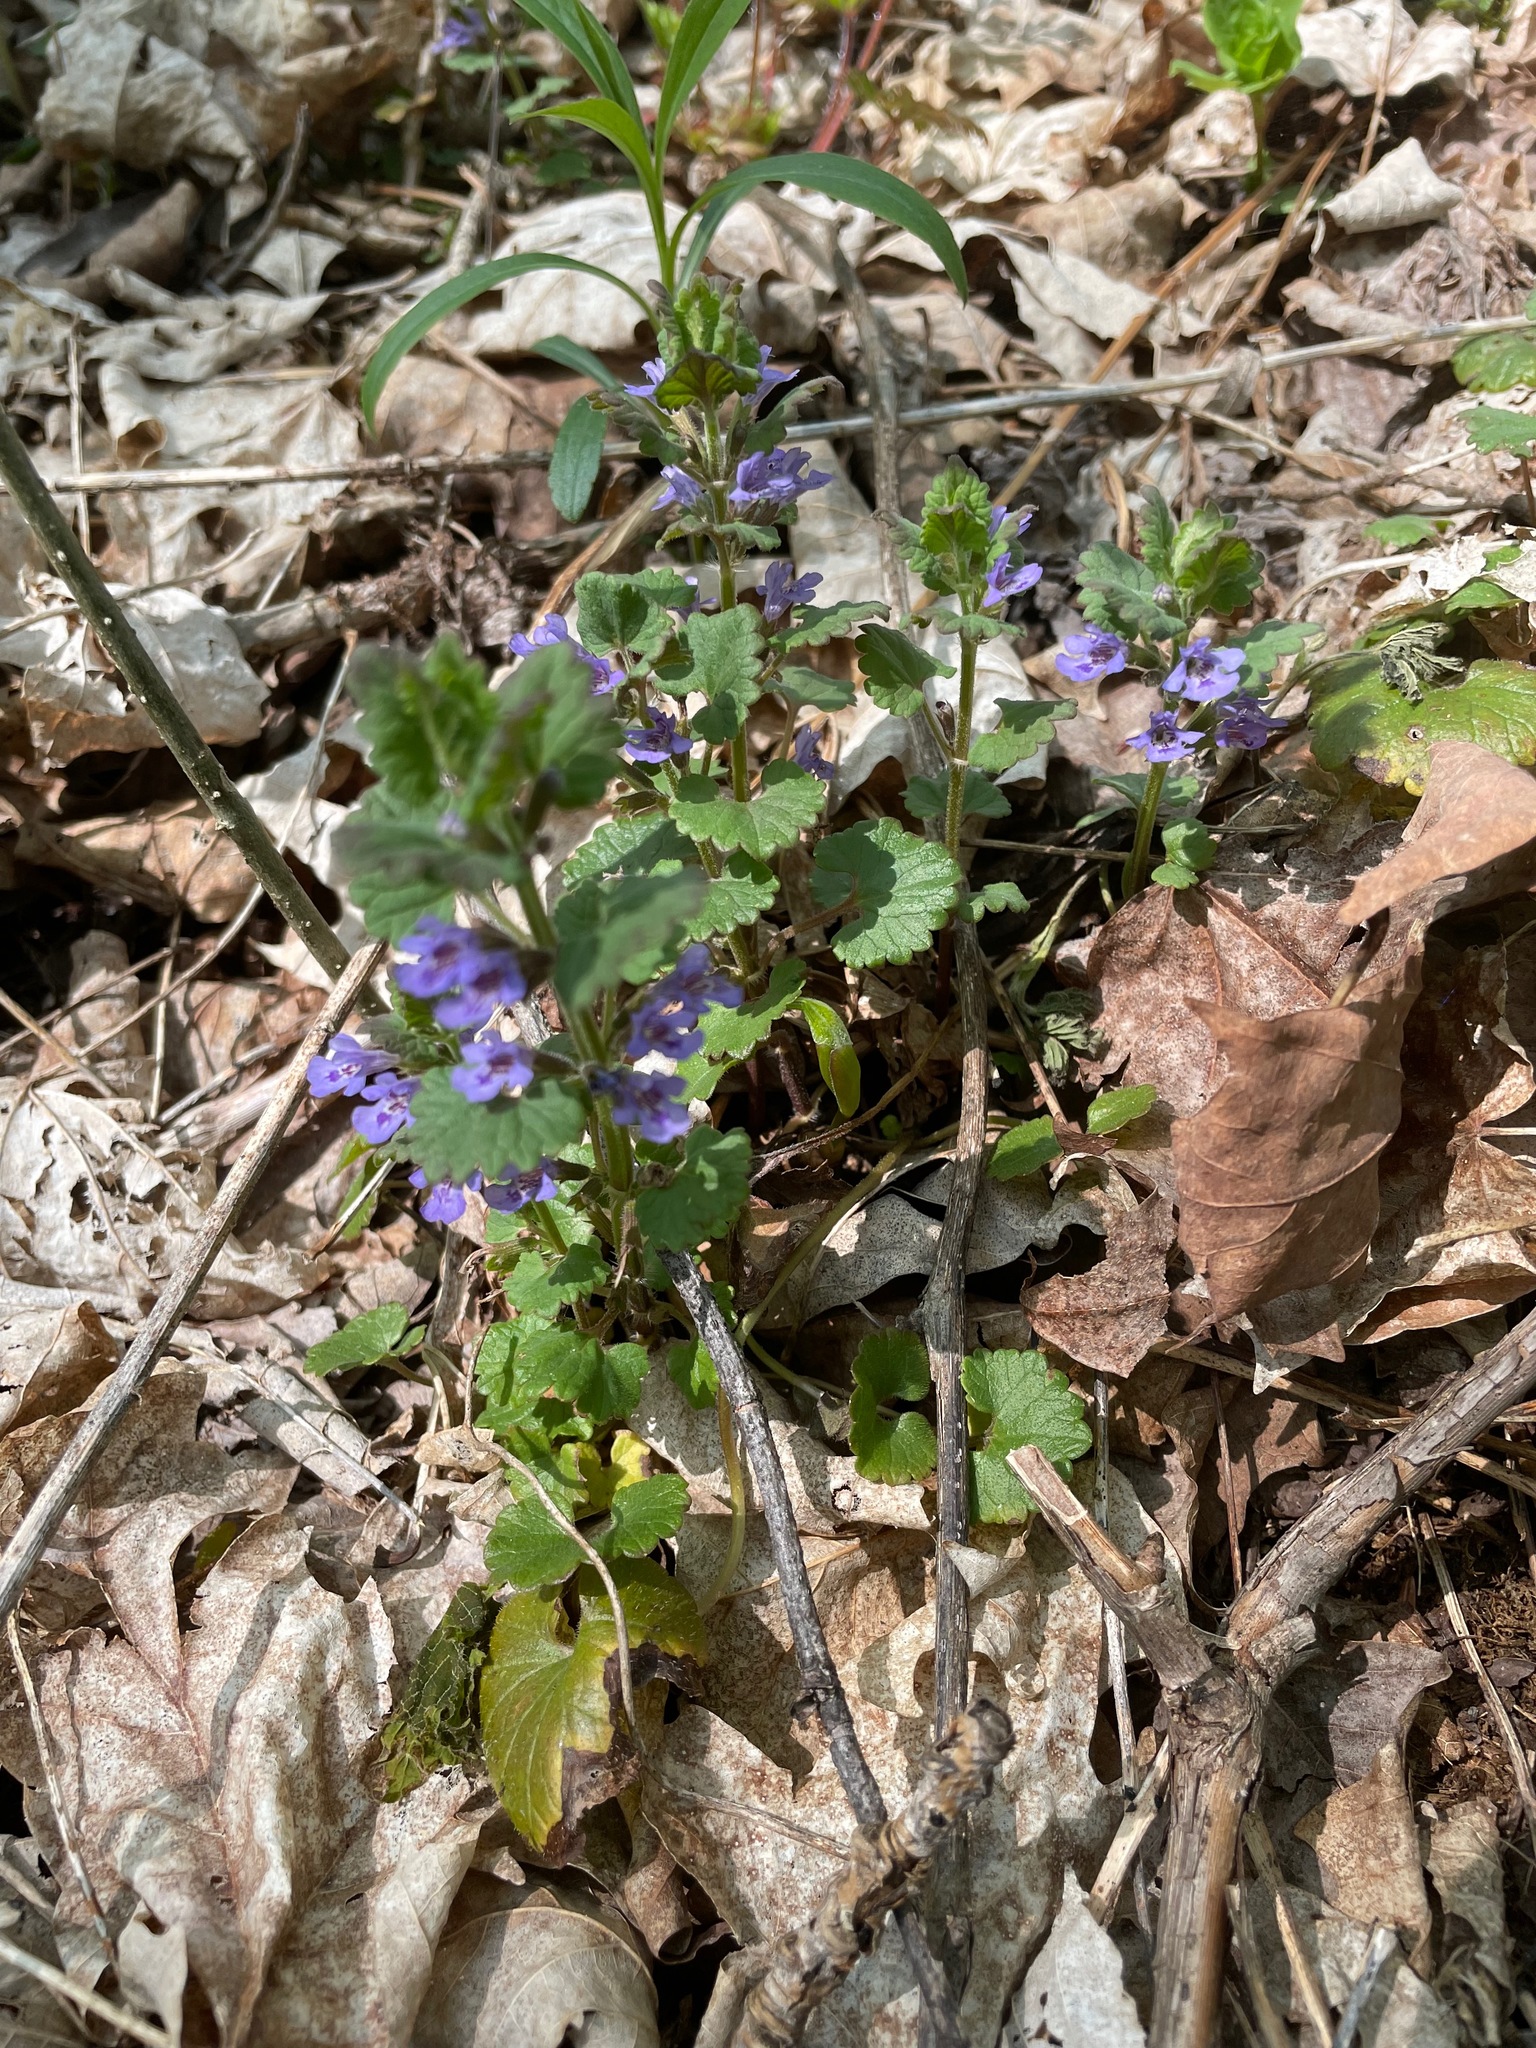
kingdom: Plantae
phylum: Tracheophyta
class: Magnoliopsida
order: Lamiales
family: Lamiaceae
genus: Glechoma
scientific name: Glechoma hederacea
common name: Ground ivy
